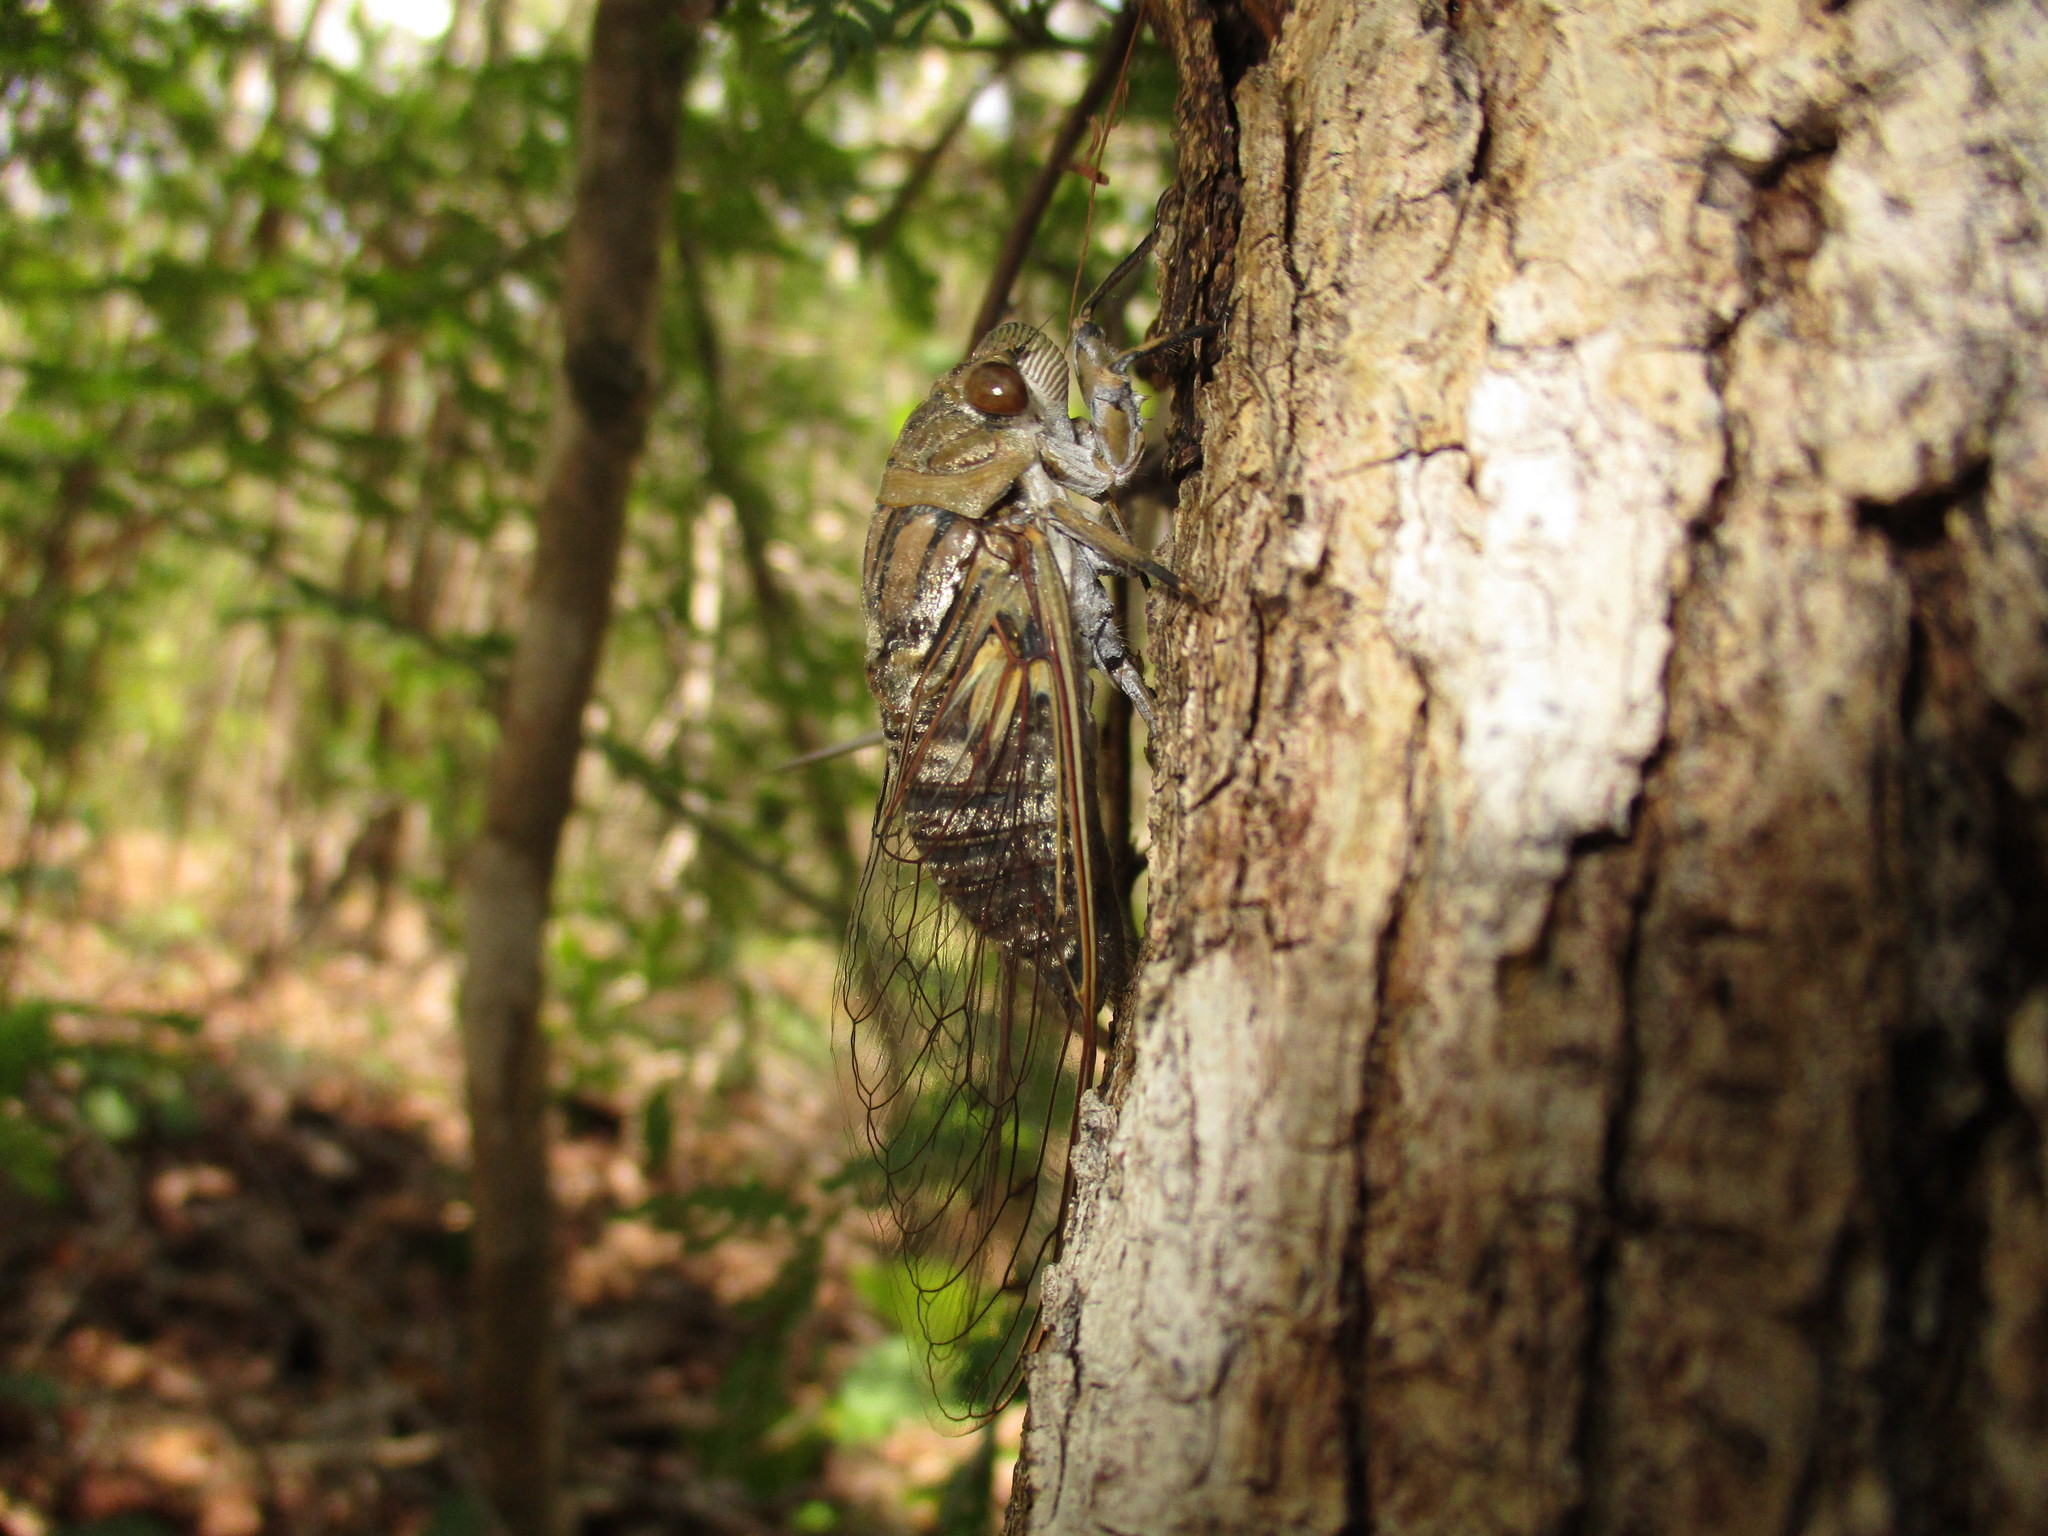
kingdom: Animalia
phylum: Arthropoda
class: Insecta
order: Hemiptera
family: Cicadidae
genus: Quesada
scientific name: Quesada gigas
